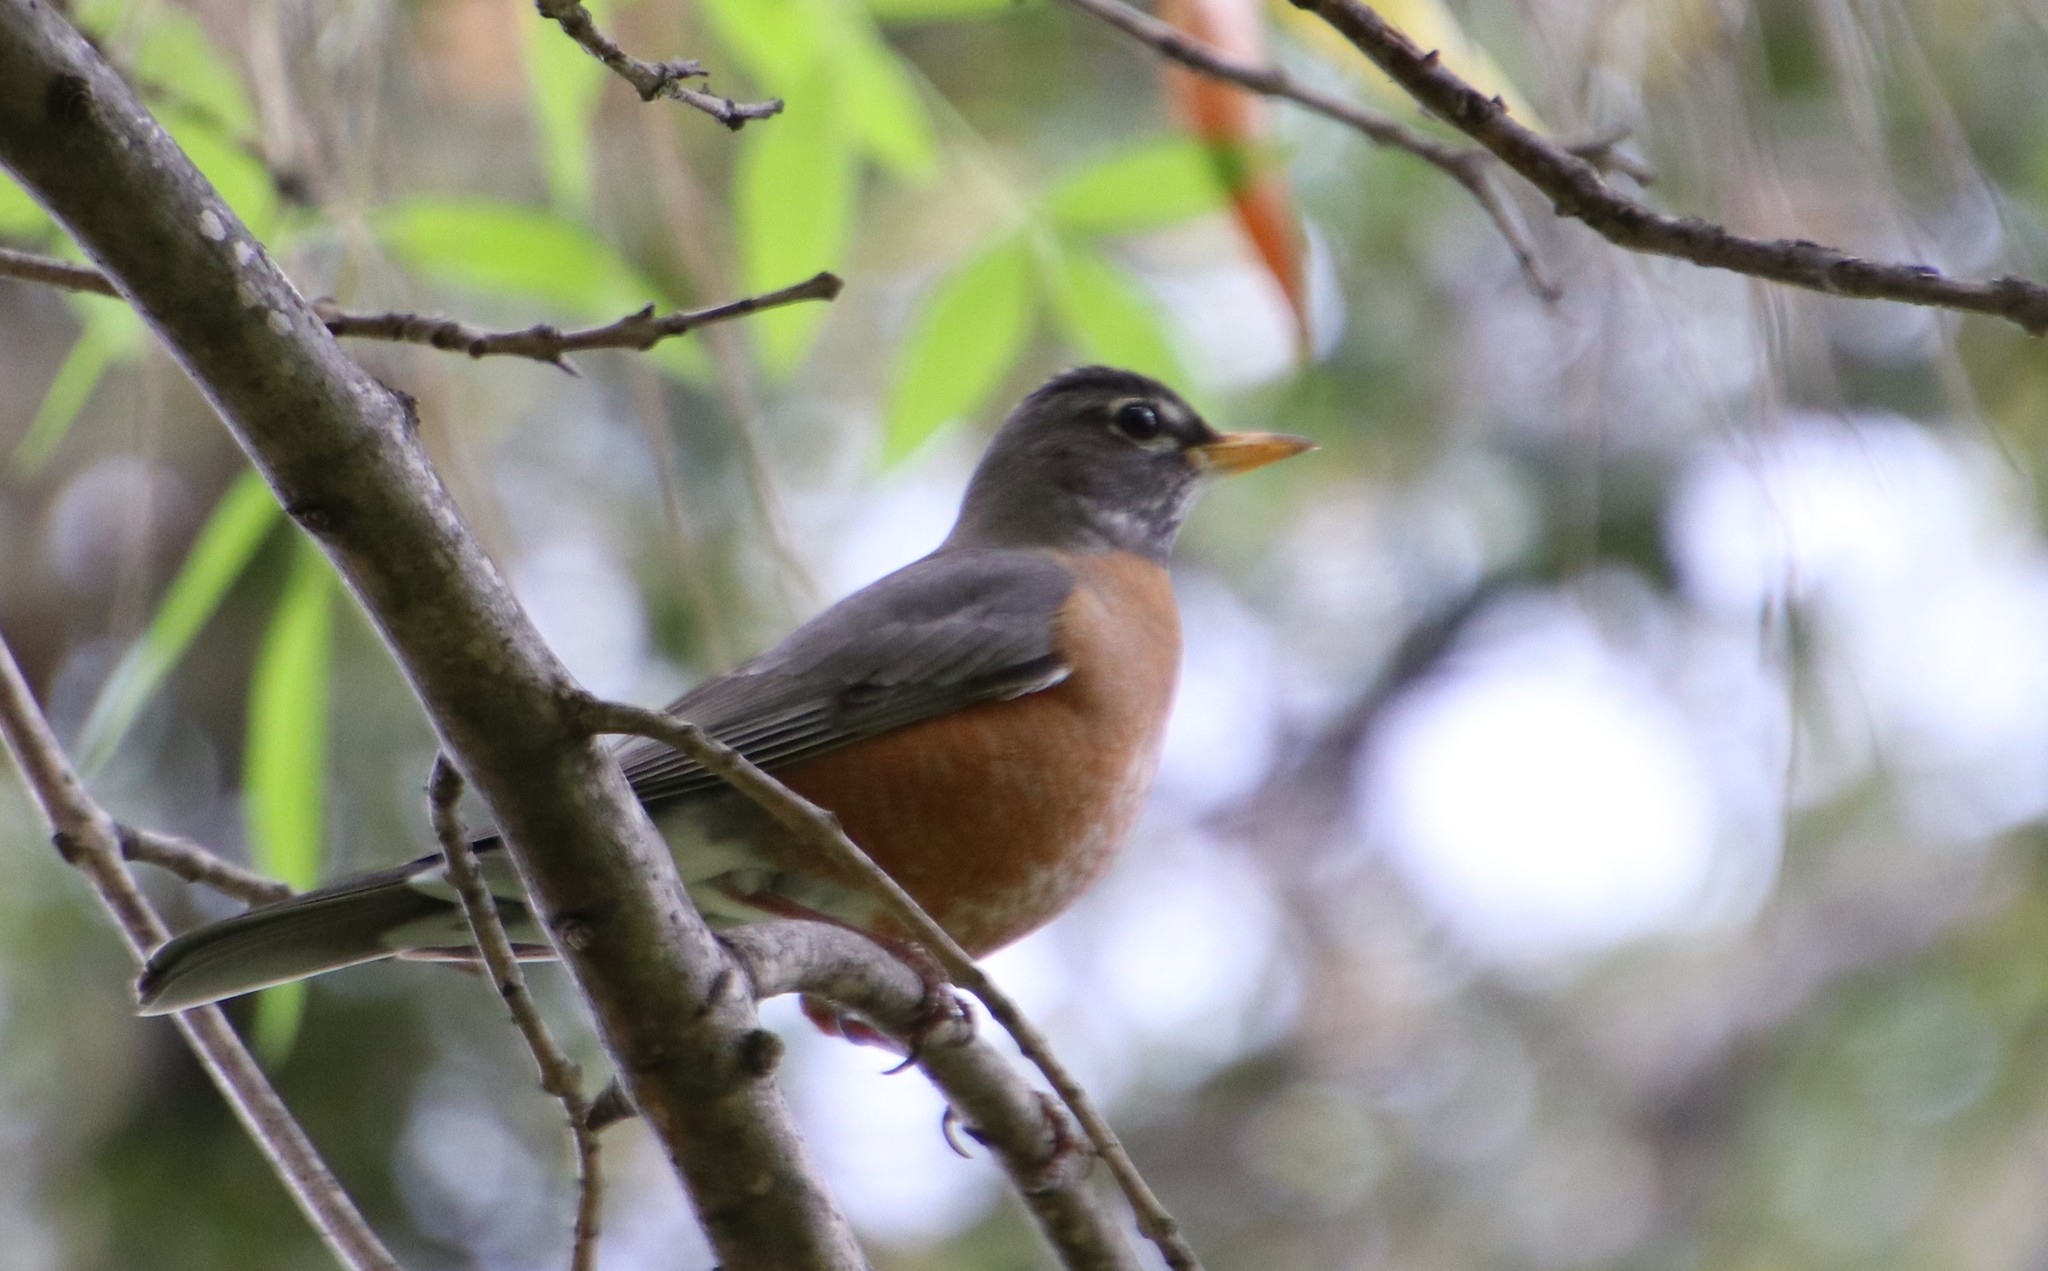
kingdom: Animalia
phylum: Chordata
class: Aves
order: Passeriformes
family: Turdidae
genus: Turdus
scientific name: Turdus migratorius
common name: American robin
